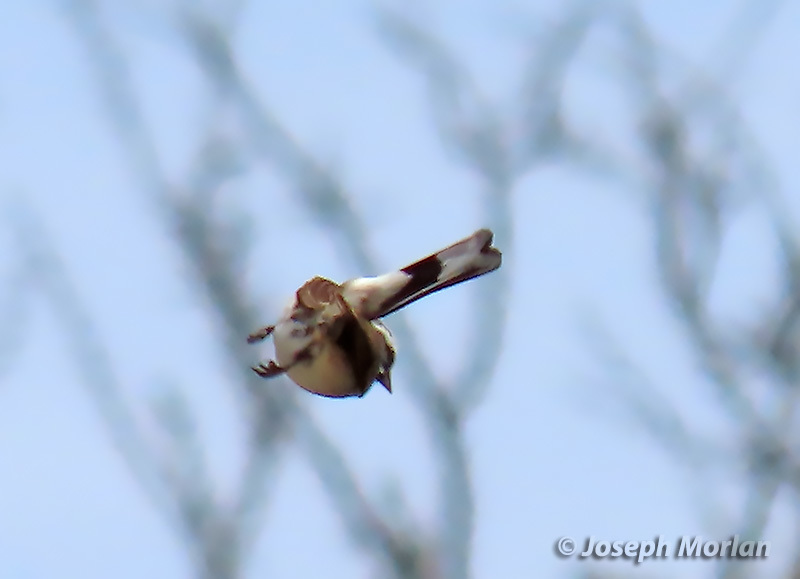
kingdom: Animalia
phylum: Chordata
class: Aves
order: Passeriformes
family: Passerellidae
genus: Amphispiza
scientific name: Amphispiza bilineata
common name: Black-throated sparrow
